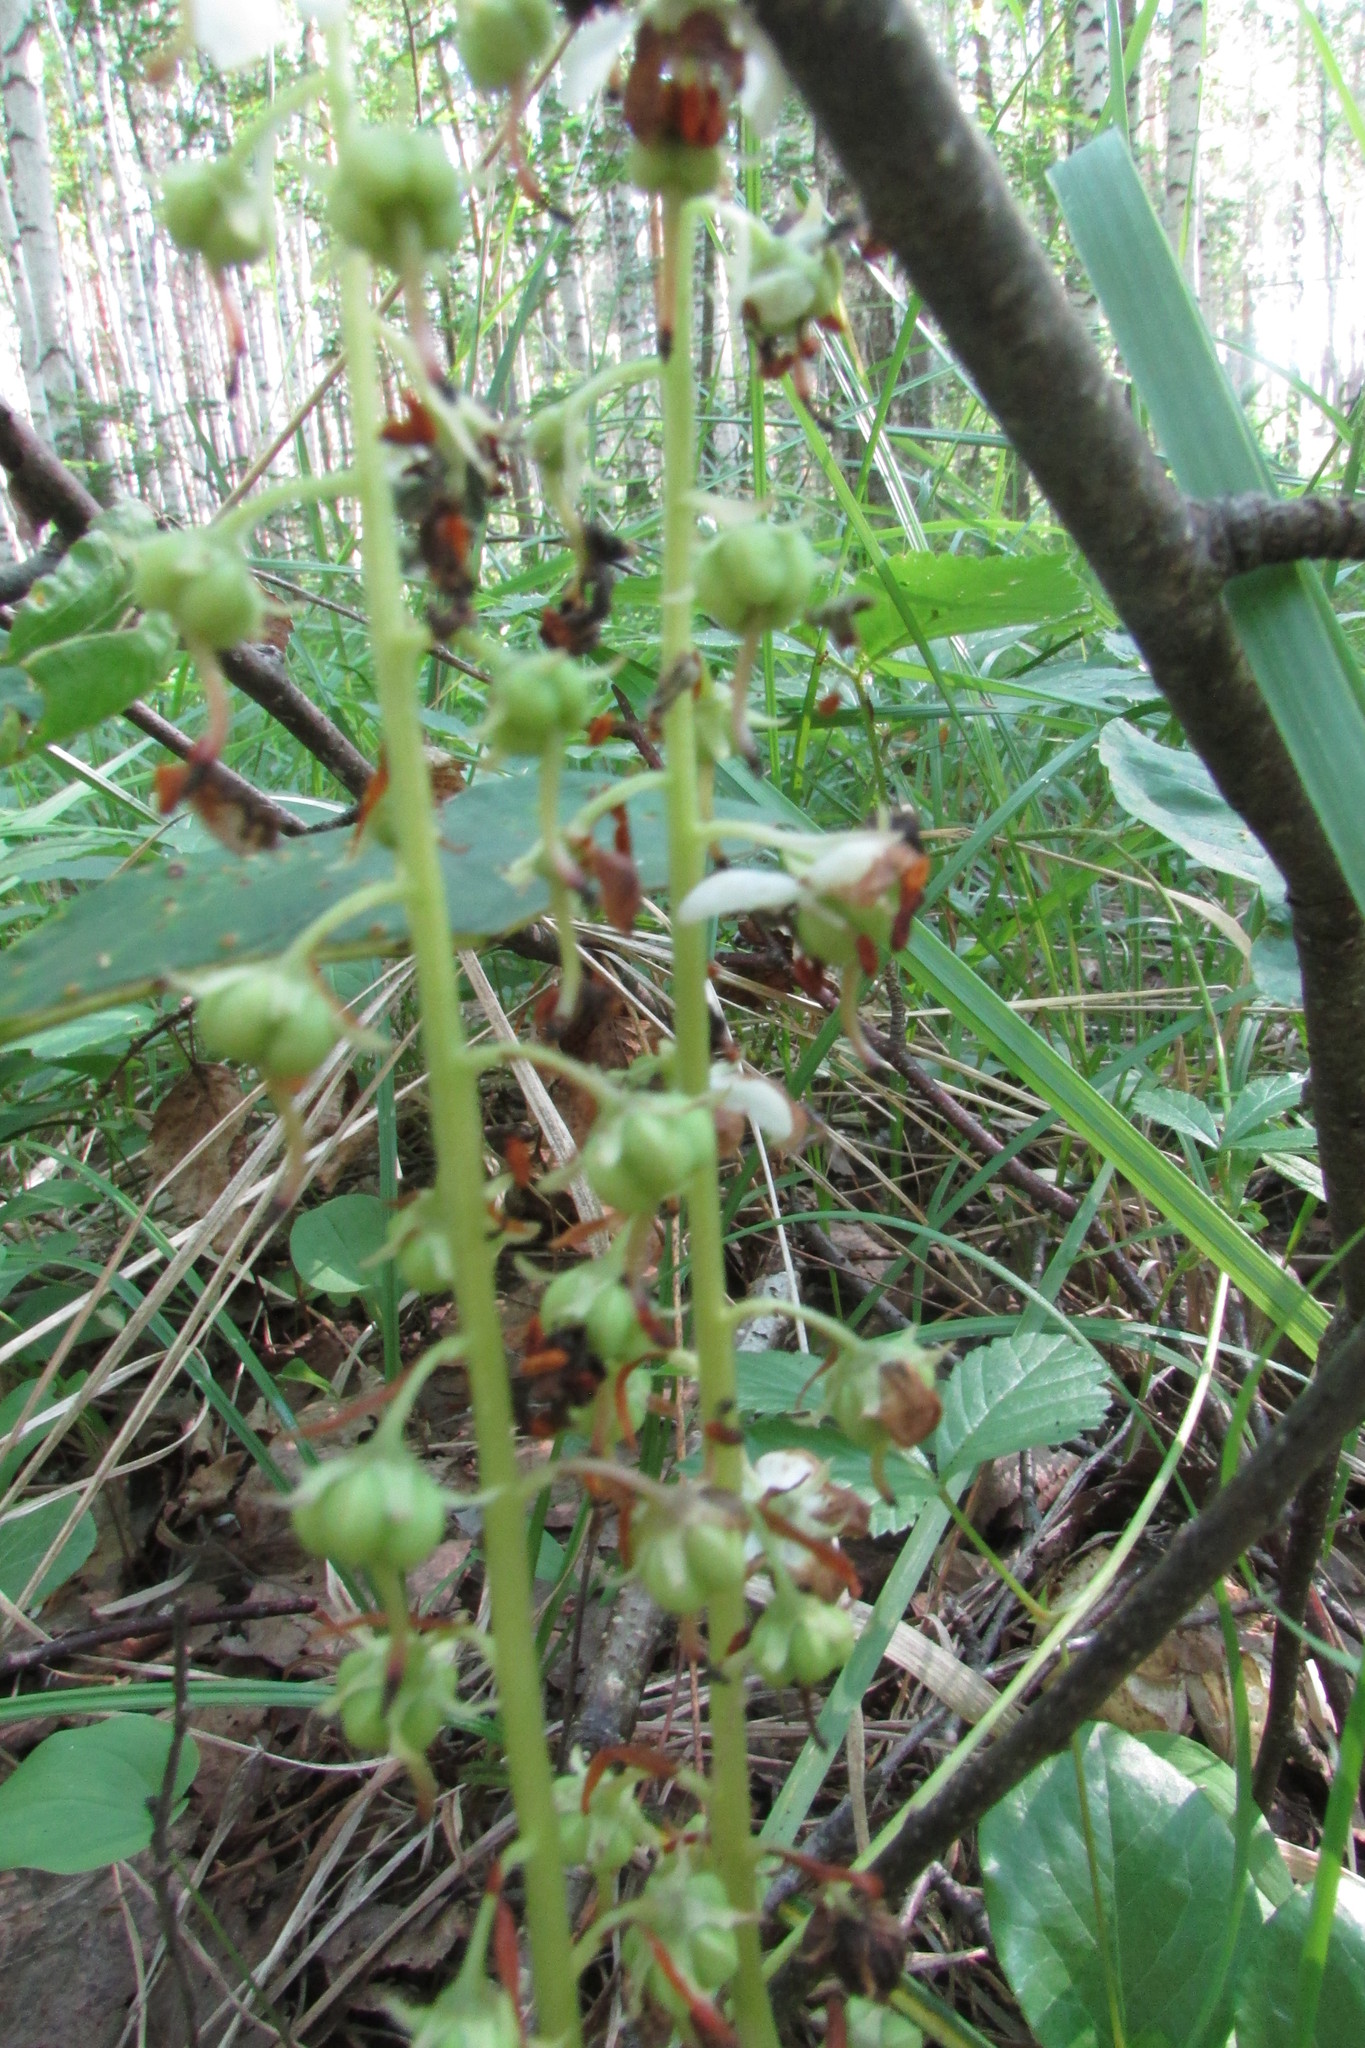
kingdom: Plantae
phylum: Tracheophyta
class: Magnoliopsida
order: Ericales
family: Ericaceae
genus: Pyrola
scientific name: Pyrola rotundifolia
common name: Round-leaved wintergreen
